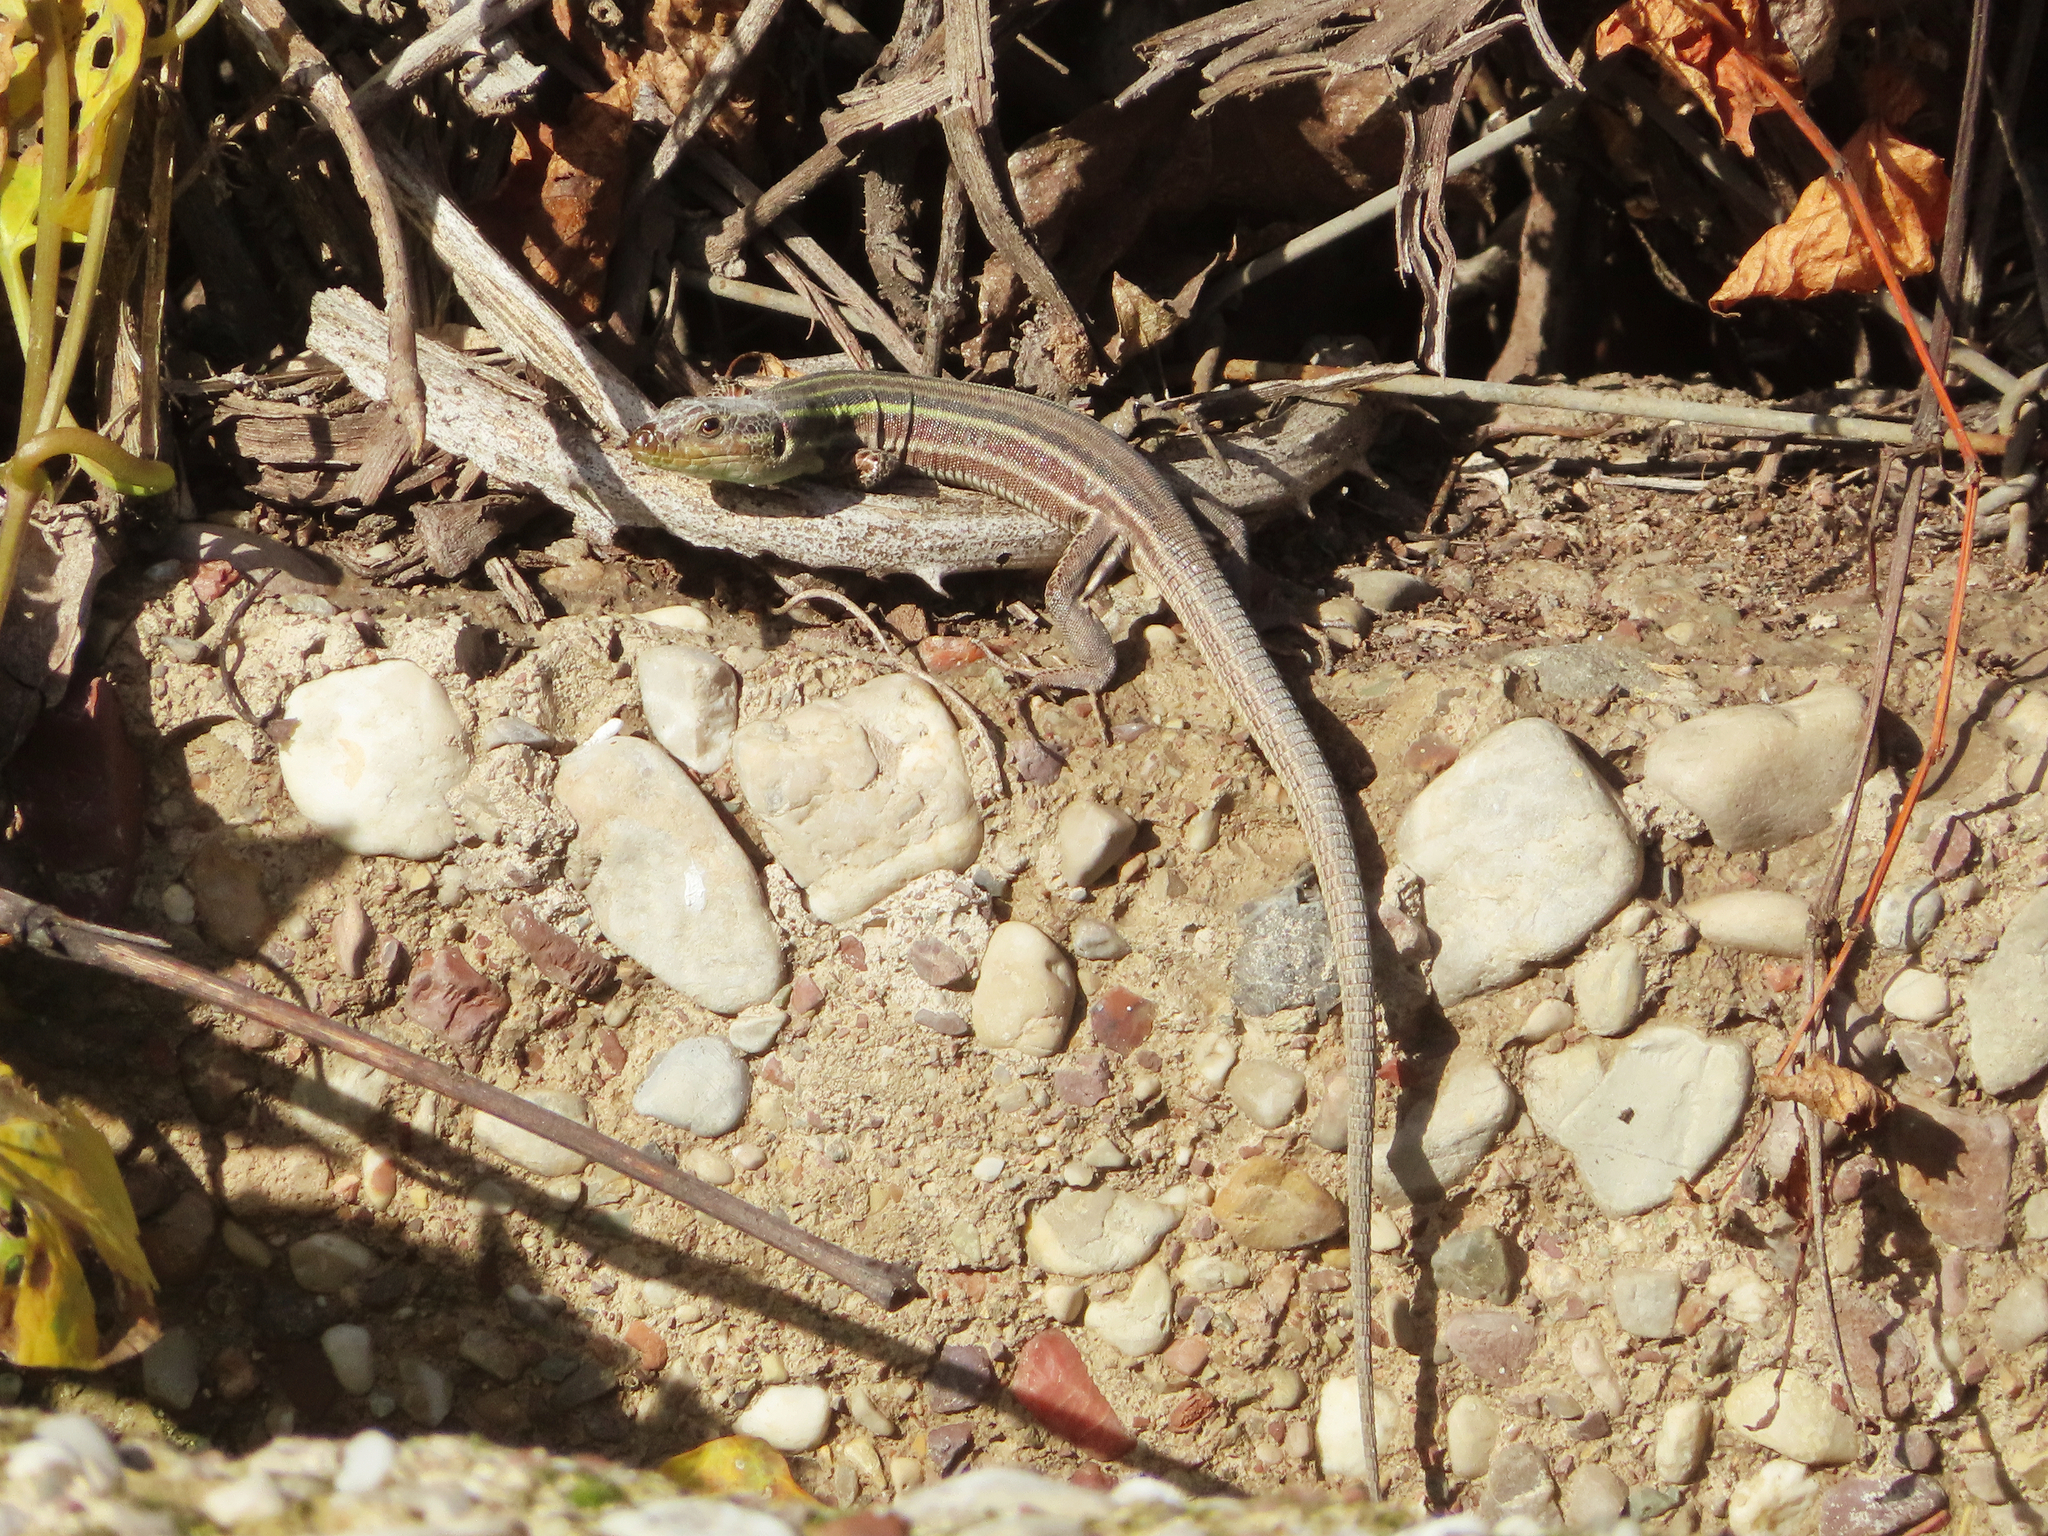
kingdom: Animalia
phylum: Chordata
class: Squamata
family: Lacertidae
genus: Podarcis
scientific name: Podarcis peloponnesiacus
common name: Peloponnese wall lizard
